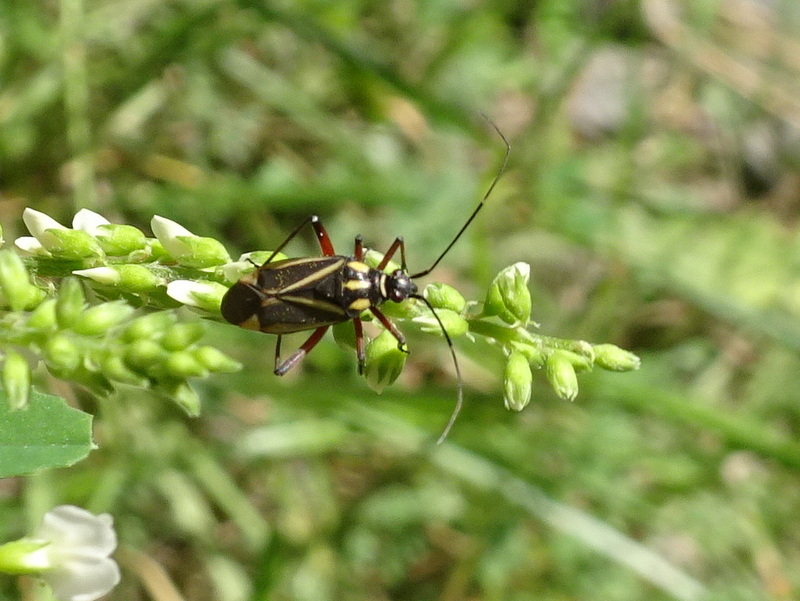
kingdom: Animalia
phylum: Arthropoda
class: Insecta
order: Hemiptera
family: Miridae
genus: Hadrodemus
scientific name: Hadrodemus m-flavum
